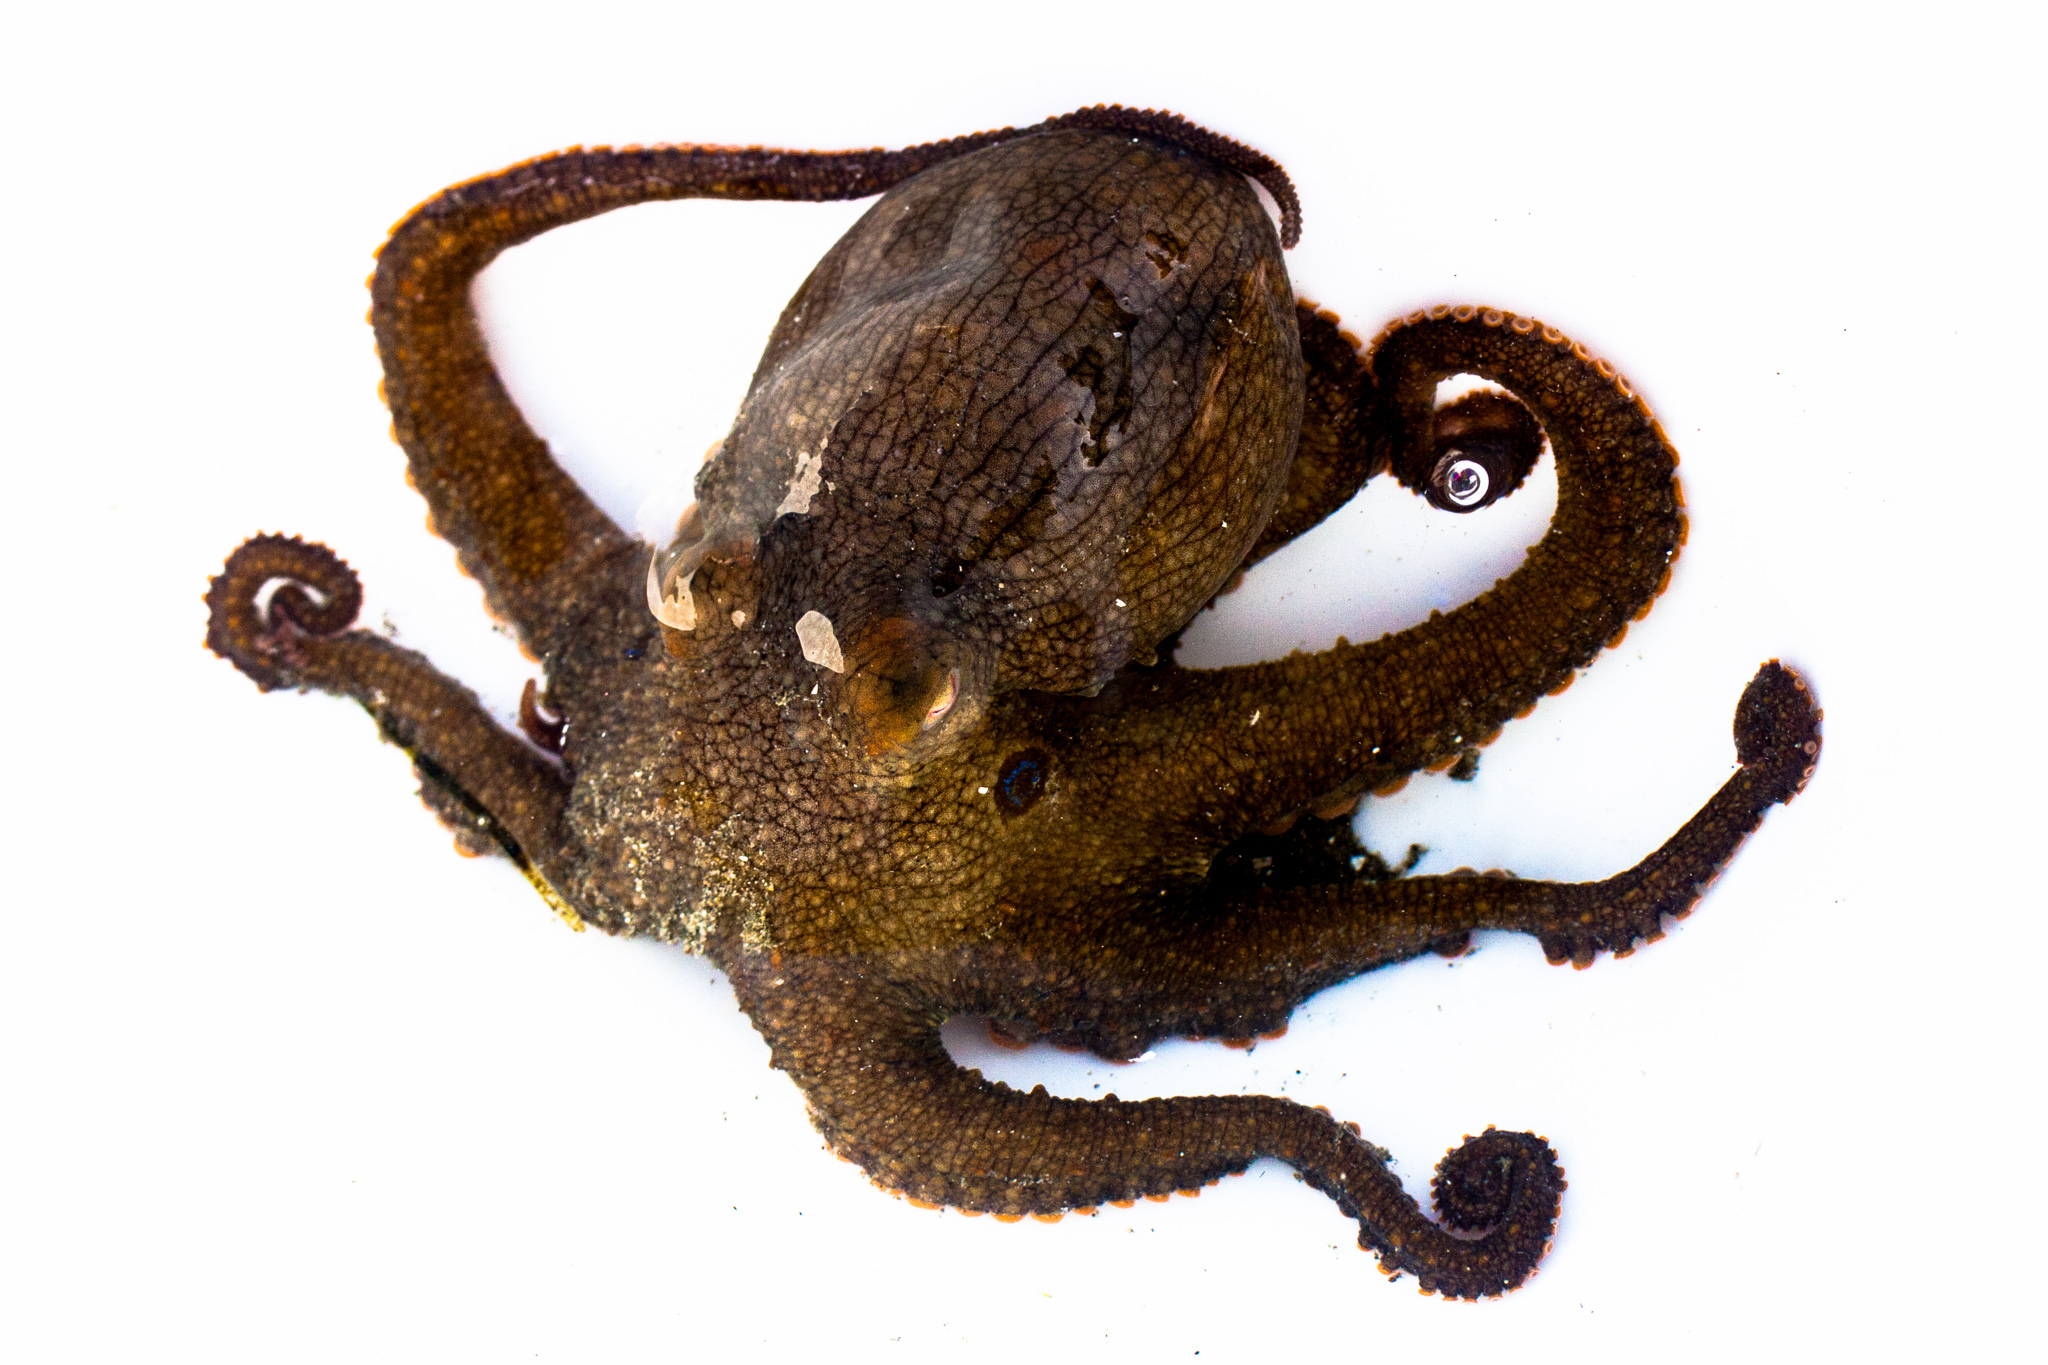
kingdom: Animalia
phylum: Mollusca
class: Cephalopoda
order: Octopoda
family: Octopodidae
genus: Octopus
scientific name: Octopus bimaculoides
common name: California two-spot octopus
